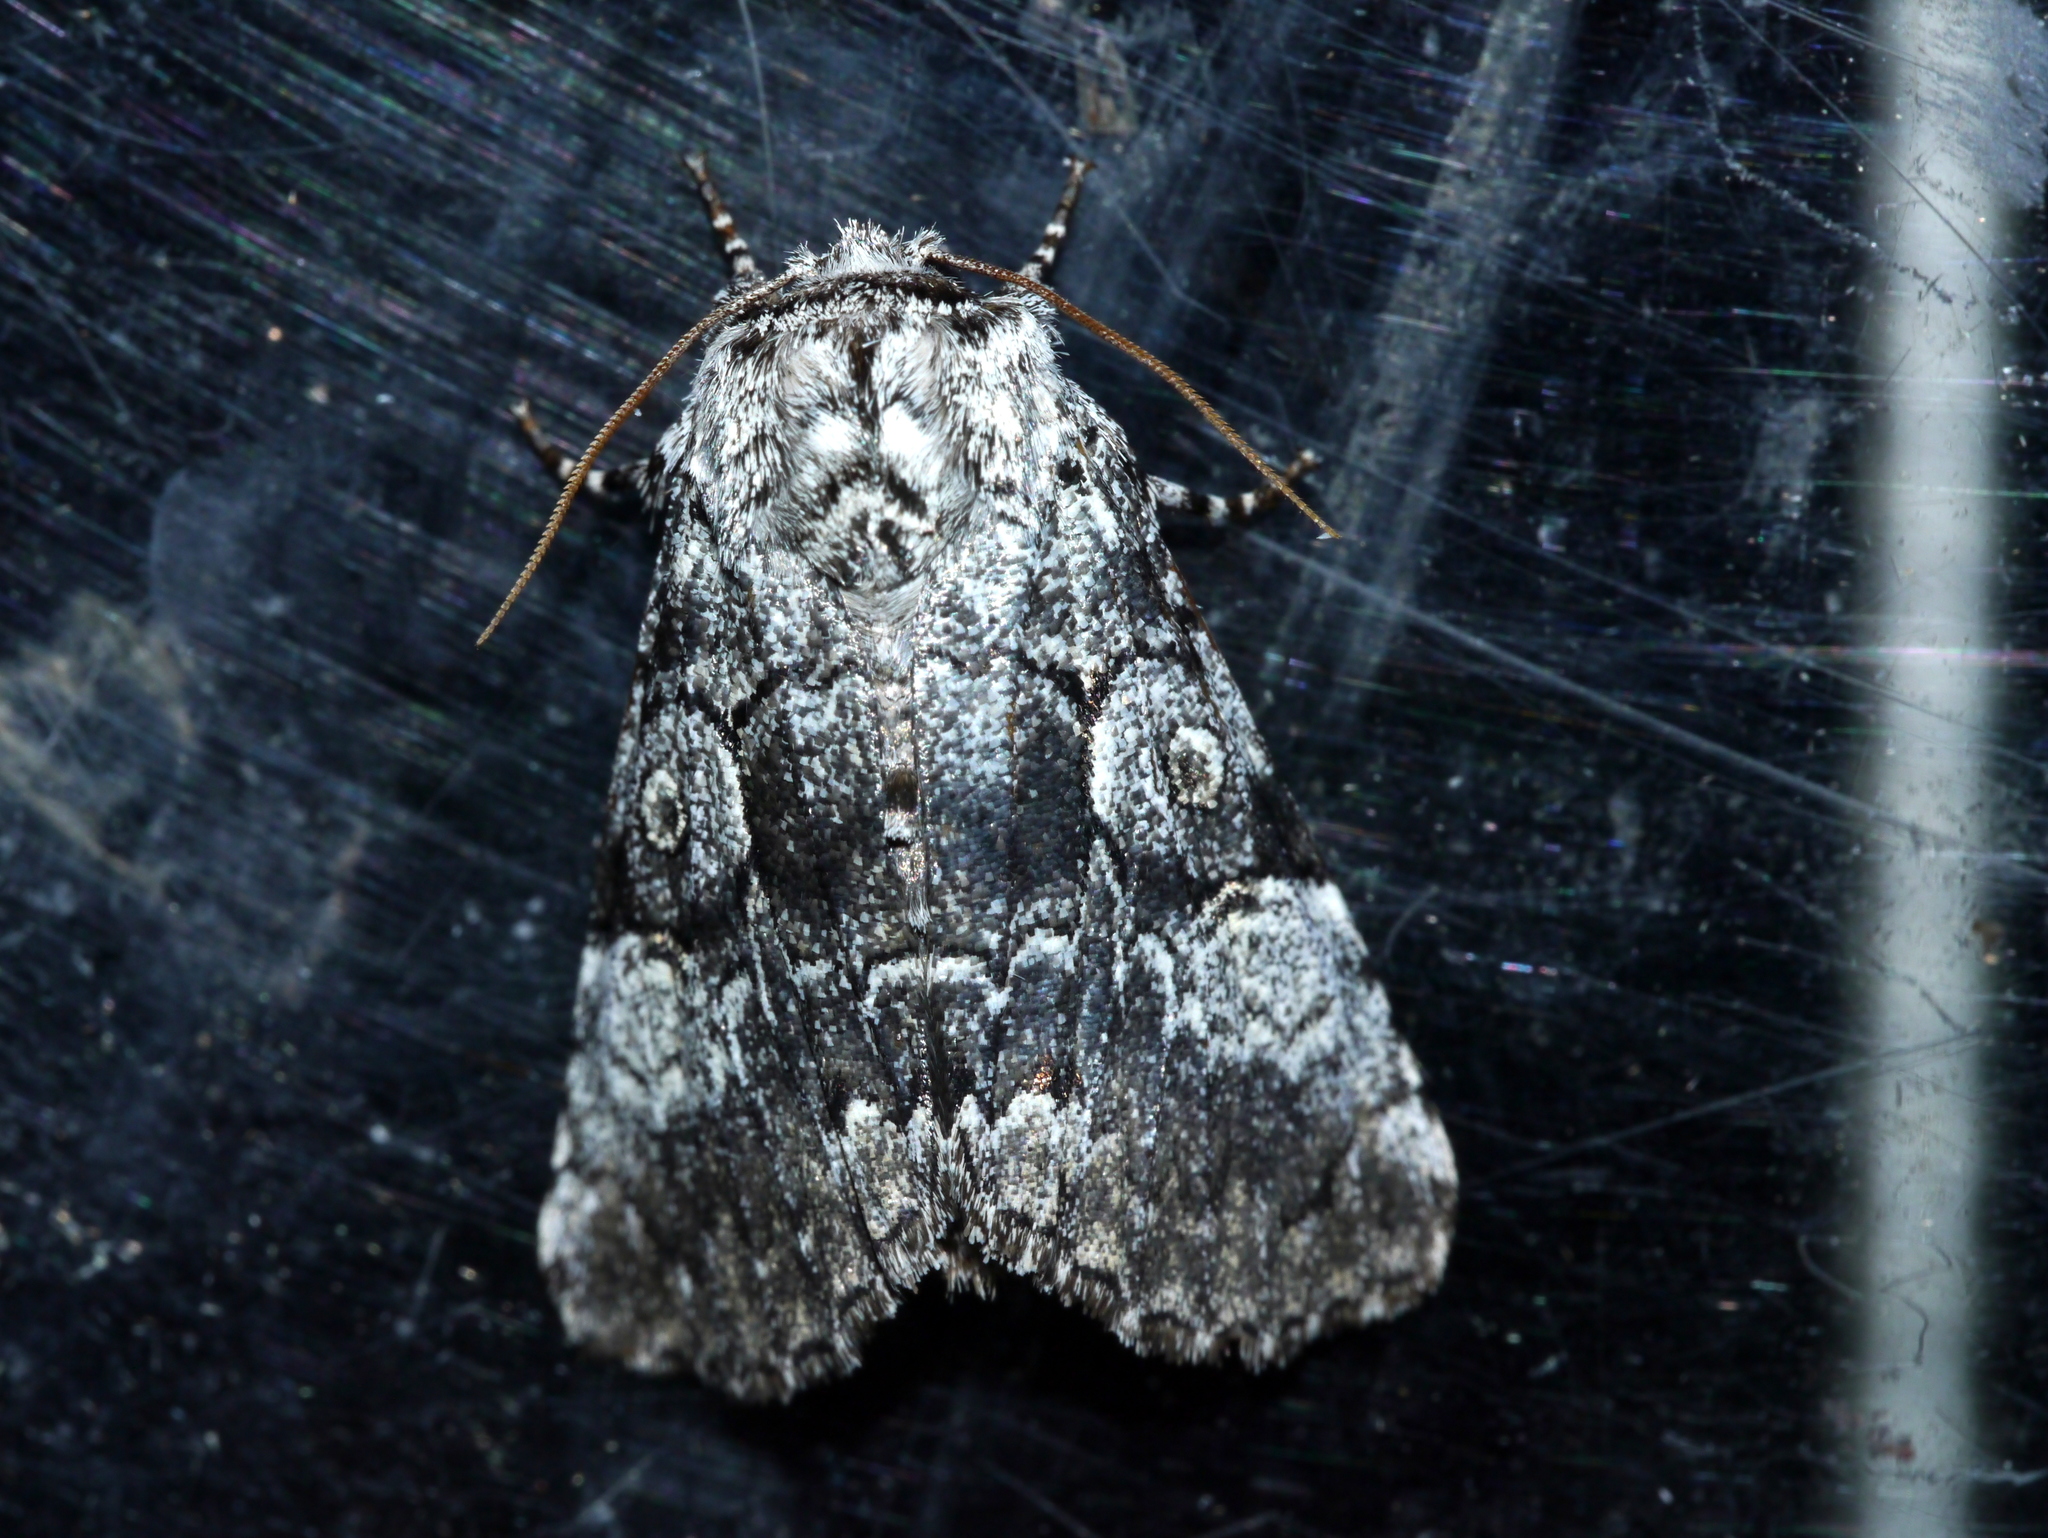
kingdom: Animalia
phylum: Arthropoda
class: Insecta
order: Lepidoptera
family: Noctuidae
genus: Charadra
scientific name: Charadra deridens
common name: Marbled tuffet
